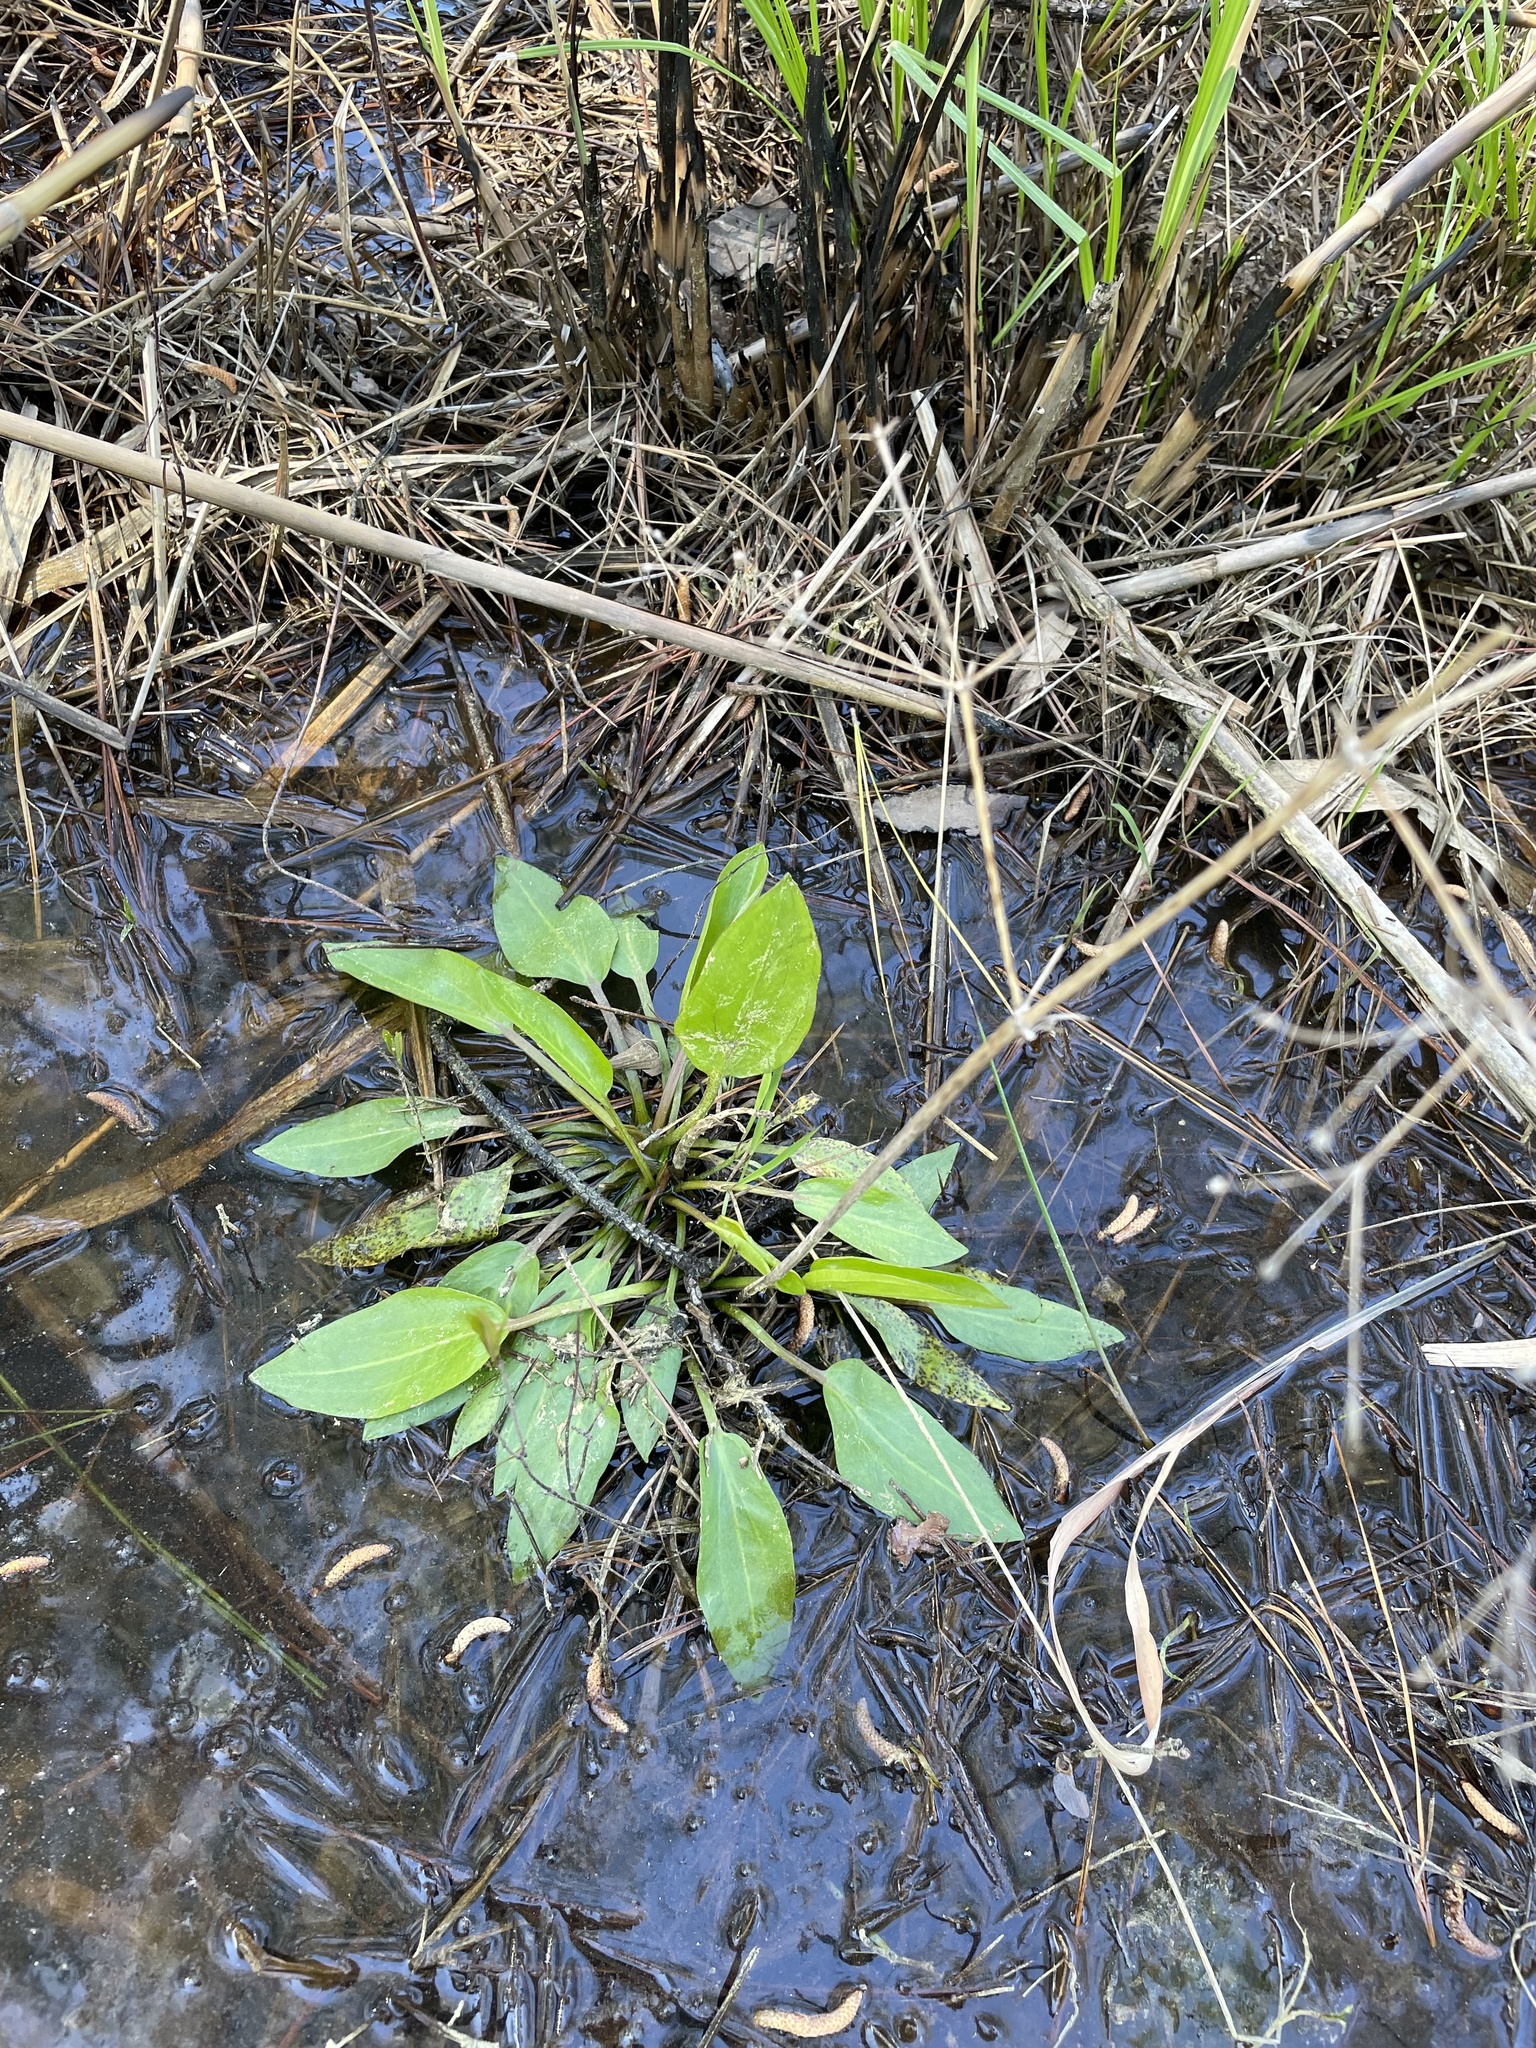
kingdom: Plantae
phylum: Tracheophyta
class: Liliopsida
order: Alismatales
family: Alismataceae
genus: Alisma
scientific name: Alisma subcordatum
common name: Southern water-plantain
